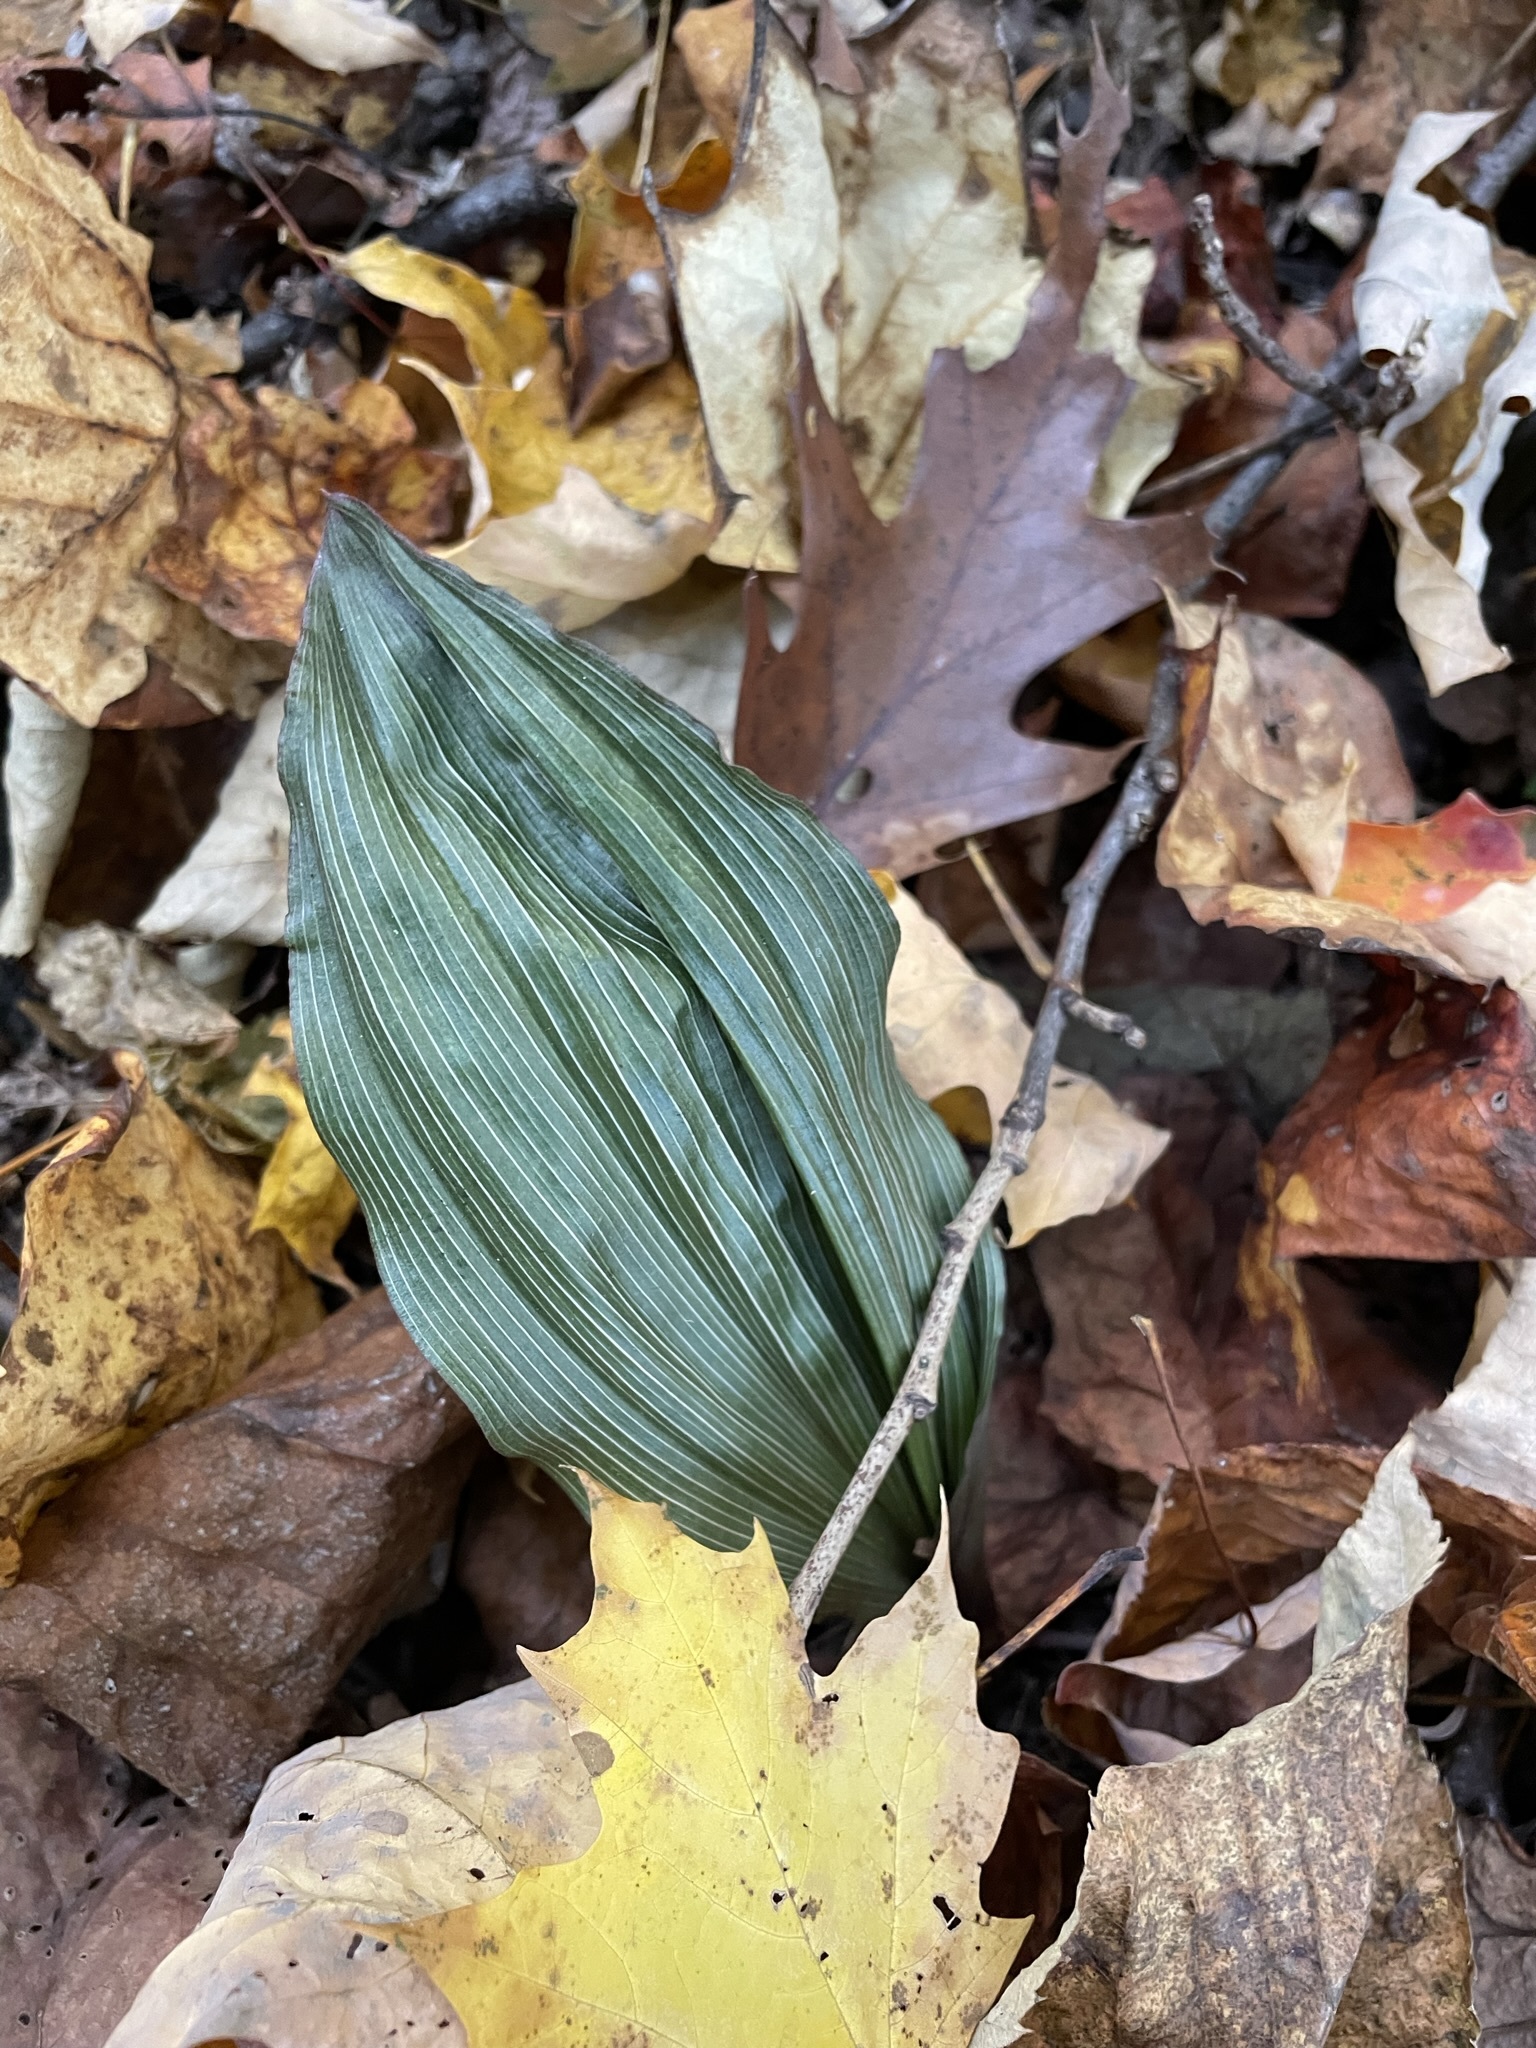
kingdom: Plantae
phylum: Tracheophyta
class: Liliopsida
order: Asparagales
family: Orchidaceae
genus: Aplectrum
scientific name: Aplectrum hyemale
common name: Adam-and-eve
